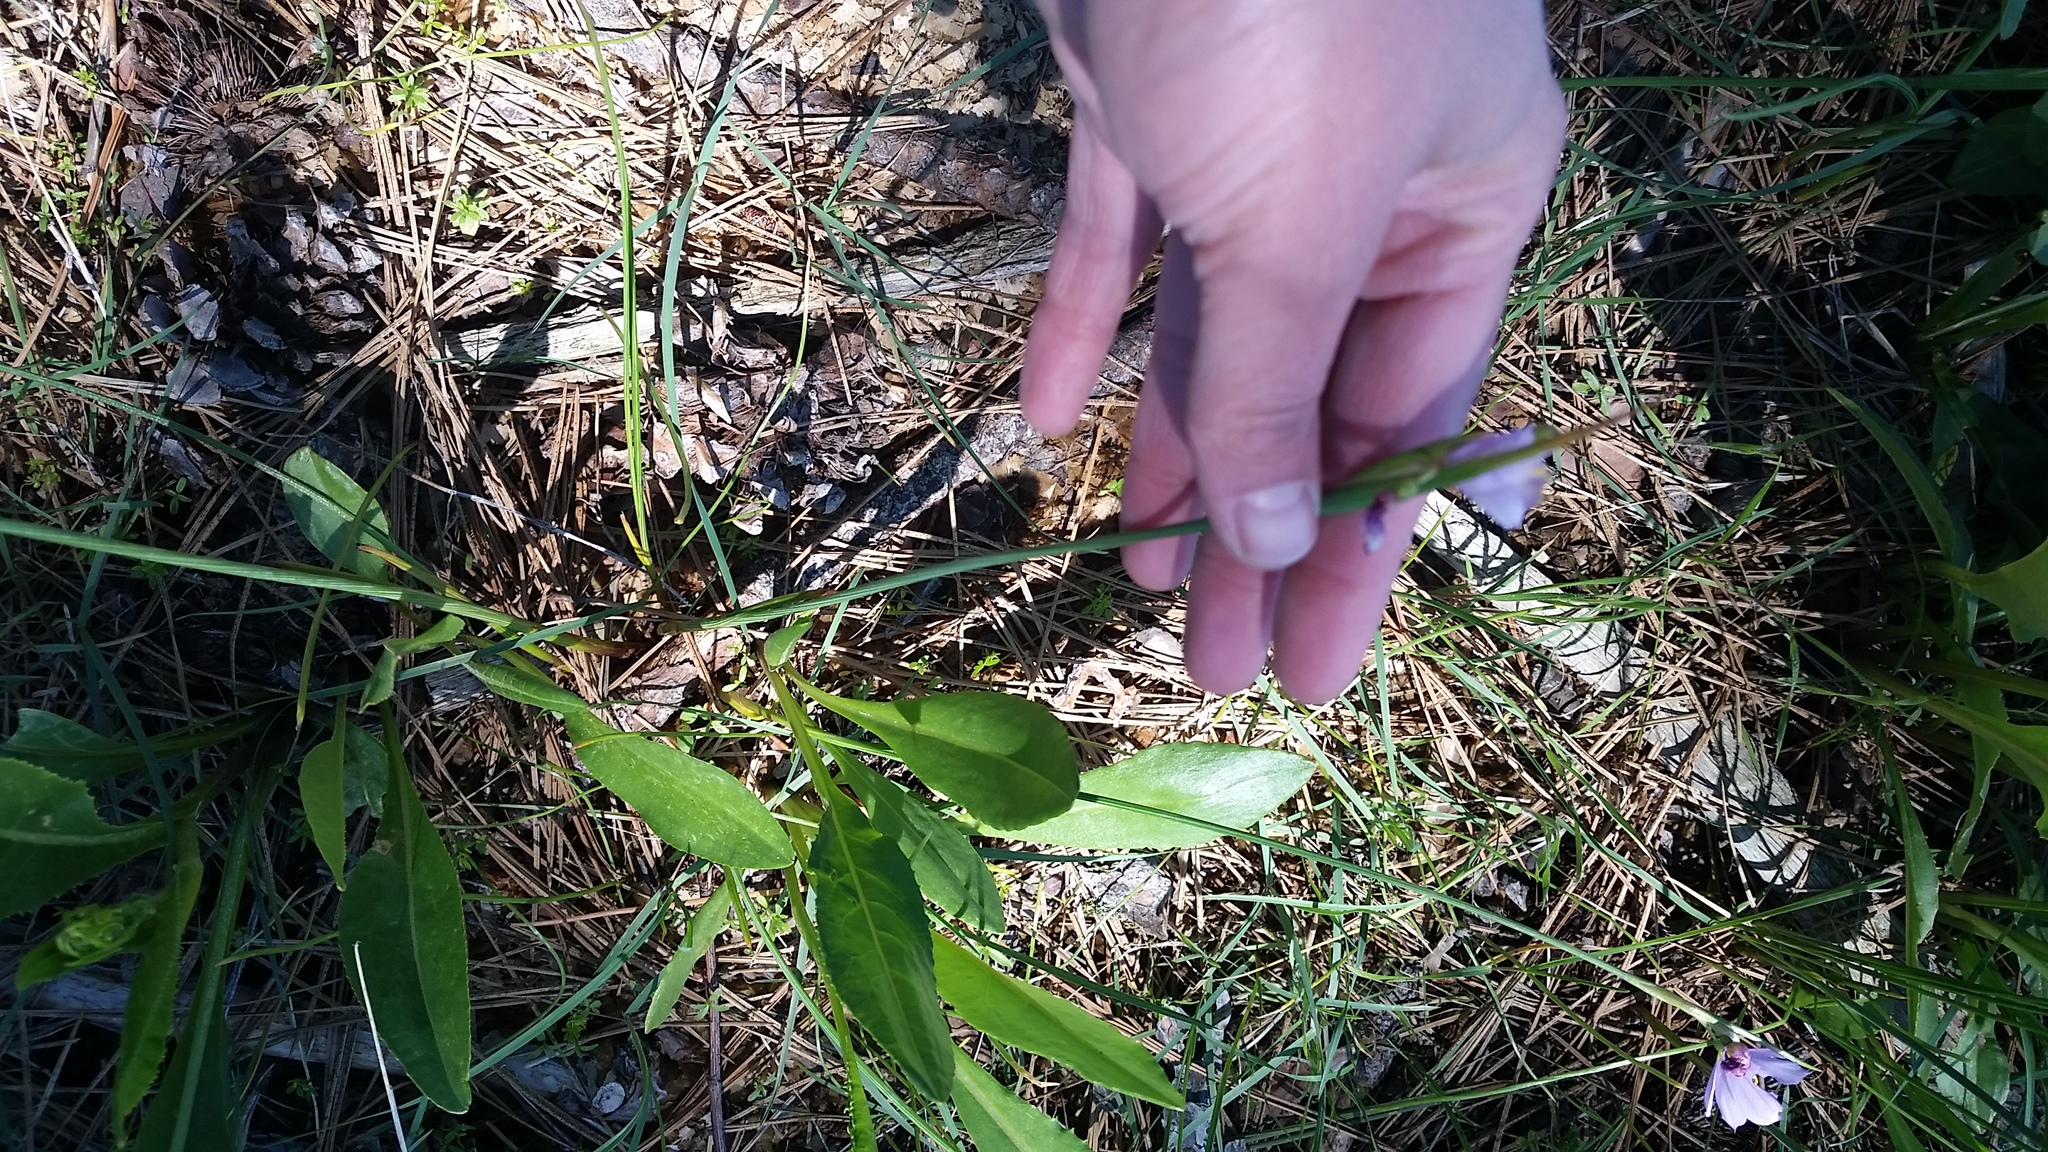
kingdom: Plantae
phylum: Tracheophyta
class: Liliopsida
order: Asparagales
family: Iridaceae
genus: Olsynium
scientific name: Olsynium douglasii
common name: Douglas' grasswidow
